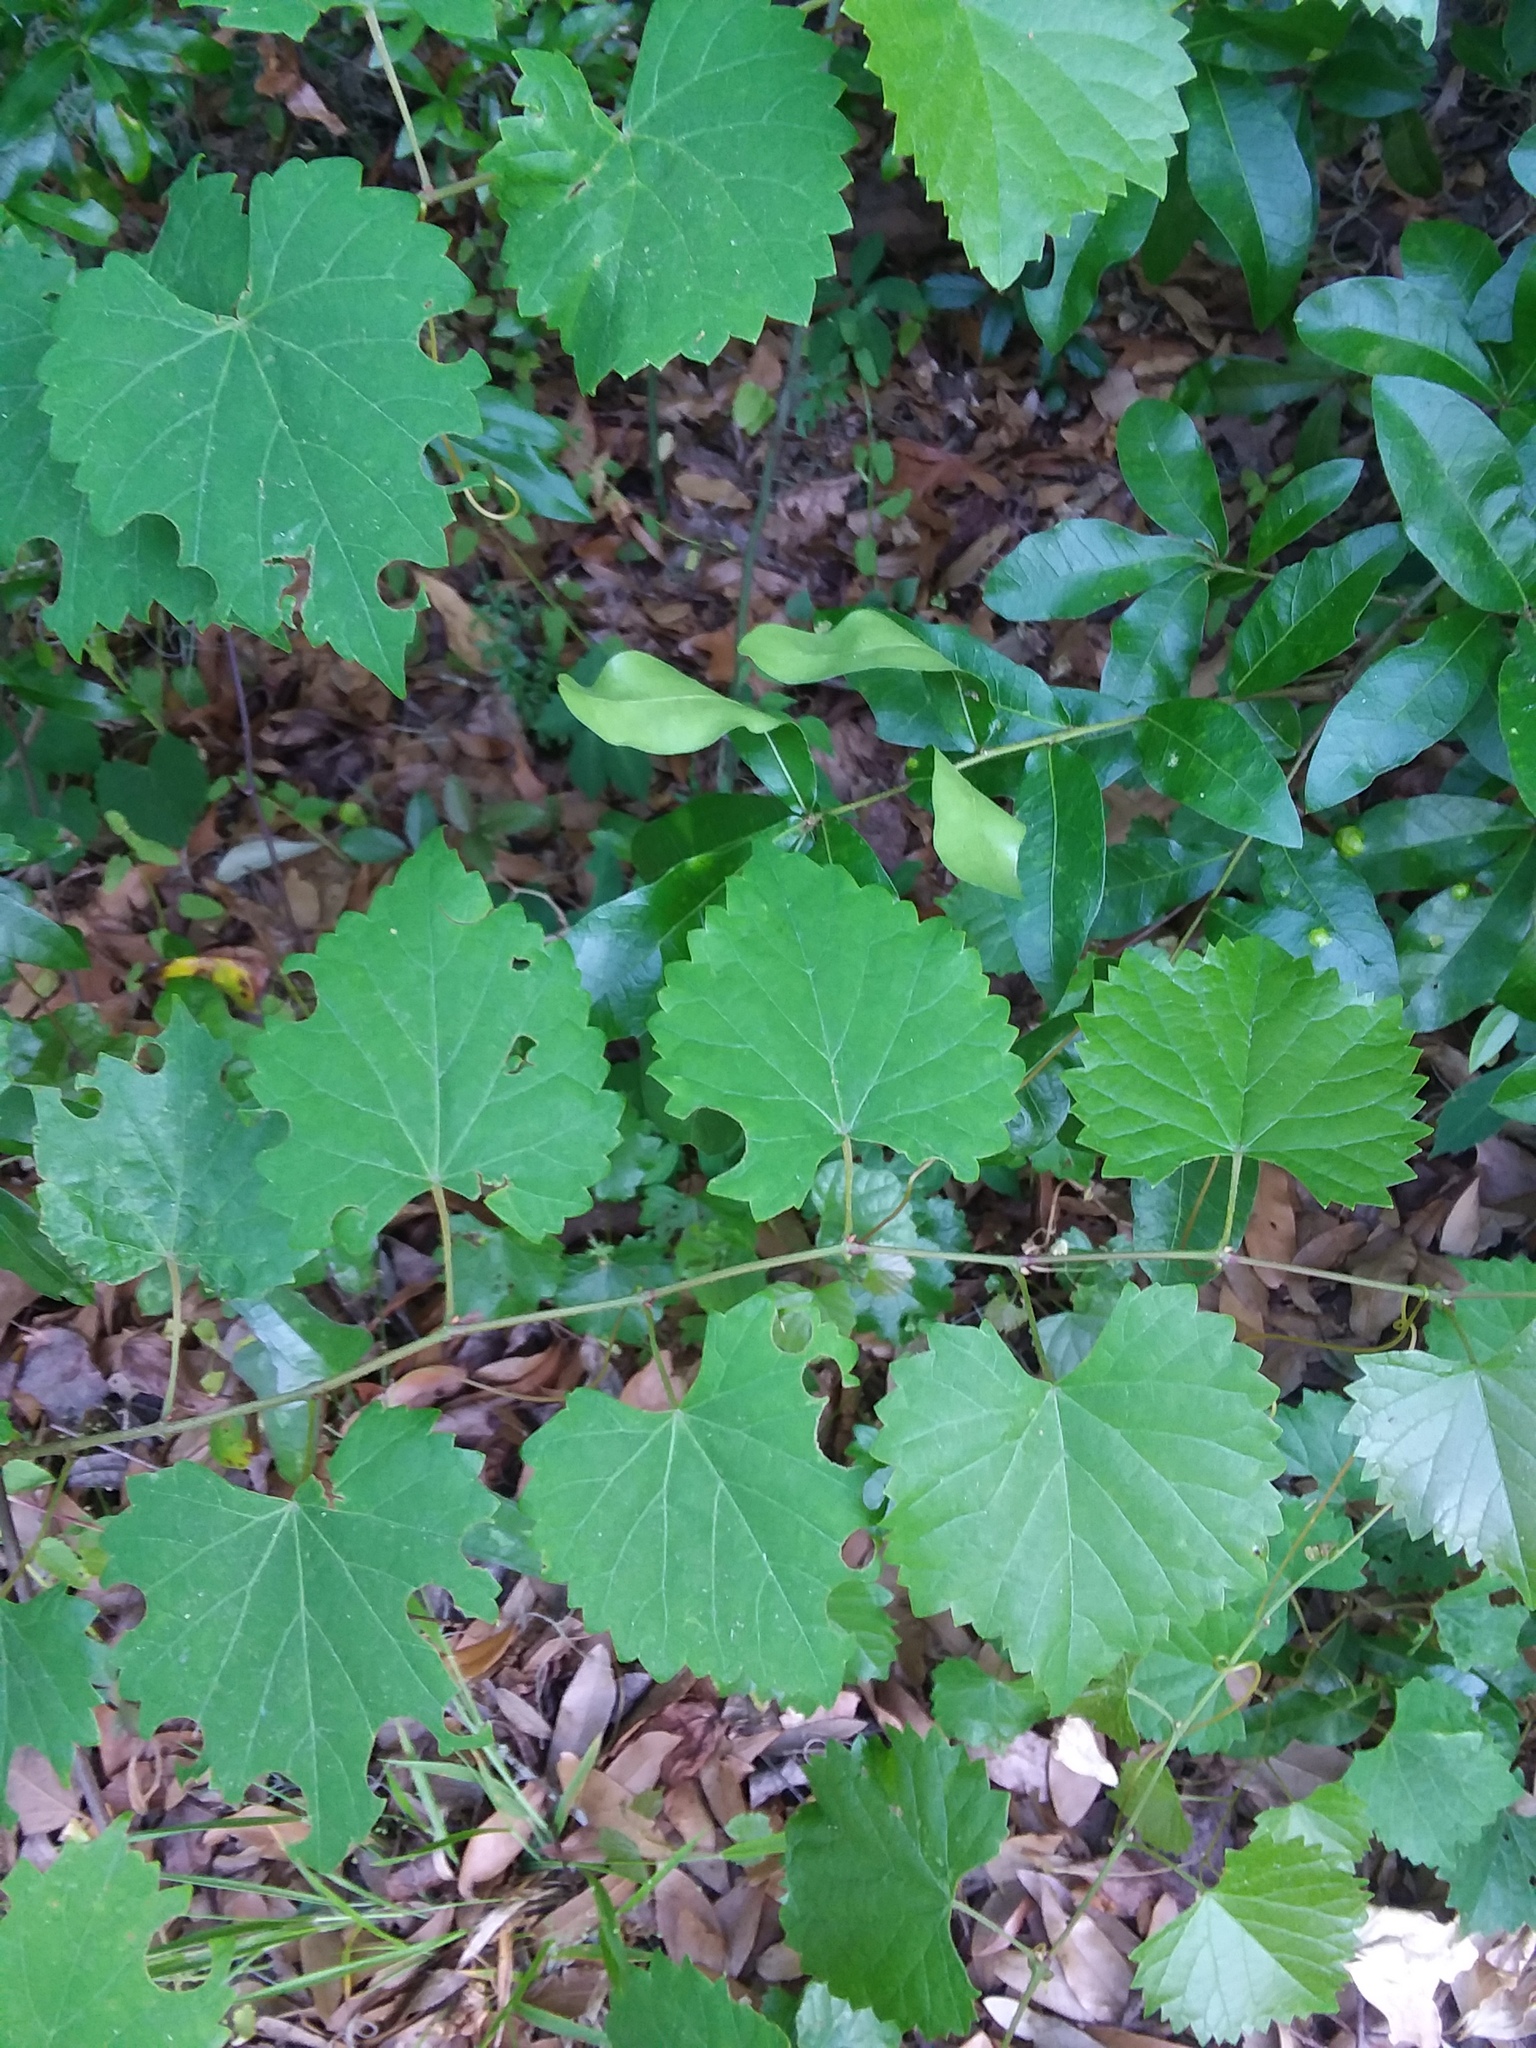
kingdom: Plantae
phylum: Tracheophyta
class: Magnoliopsida
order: Vitales
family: Vitaceae
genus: Vitis
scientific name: Vitis rotundifolia
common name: Muscadine grape
